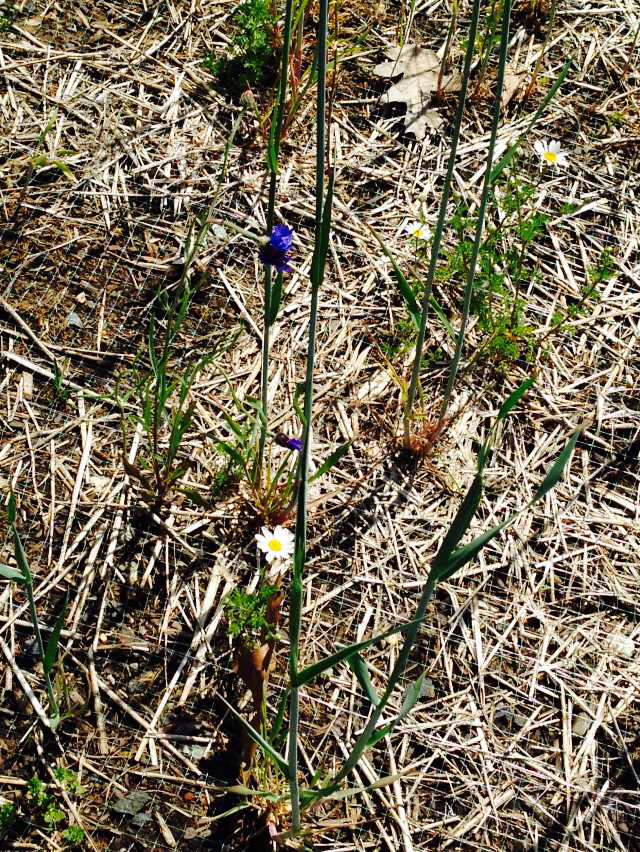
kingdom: Plantae
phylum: Tracheophyta
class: Magnoliopsida
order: Asterales
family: Asteraceae
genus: Matricaria
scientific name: Matricaria chamomilla
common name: Scented mayweed
